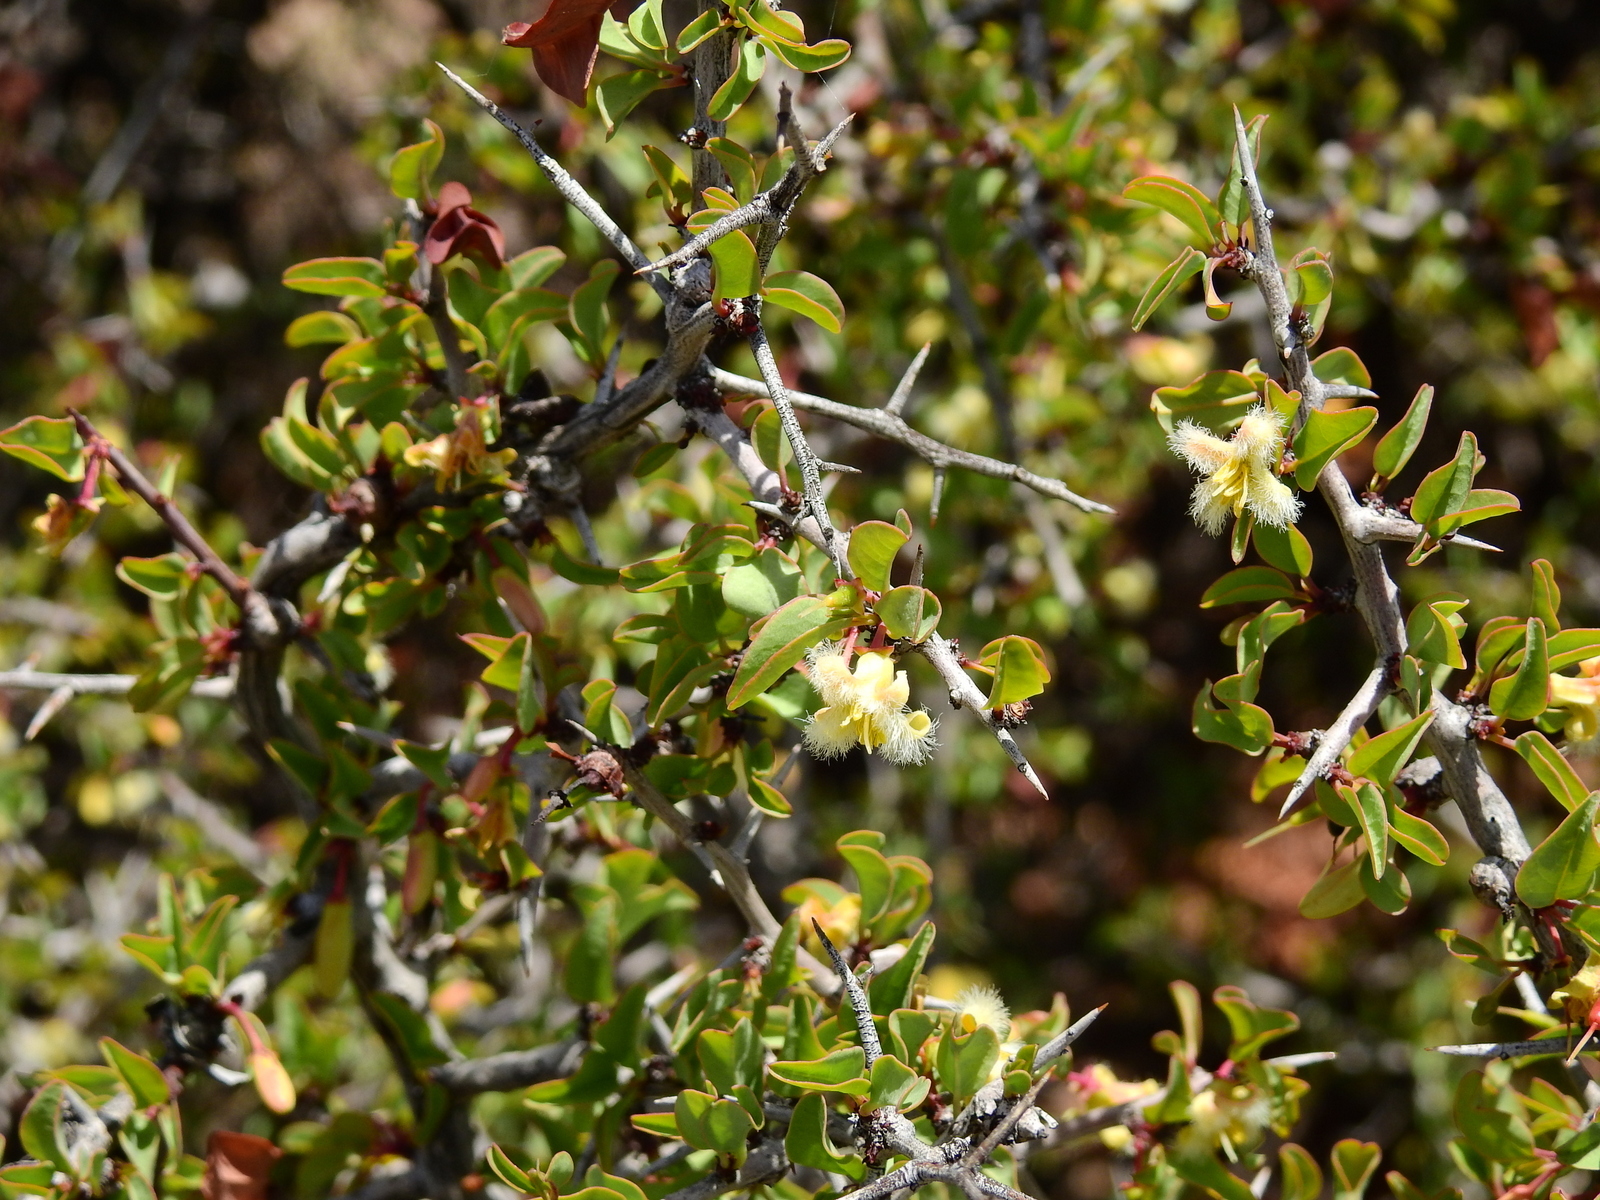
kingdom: Plantae
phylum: Tracheophyta
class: Magnoliopsida
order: Santalales
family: Ximeniaceae
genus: Ximenia
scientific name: Ximenia americana
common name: Tallowwood
